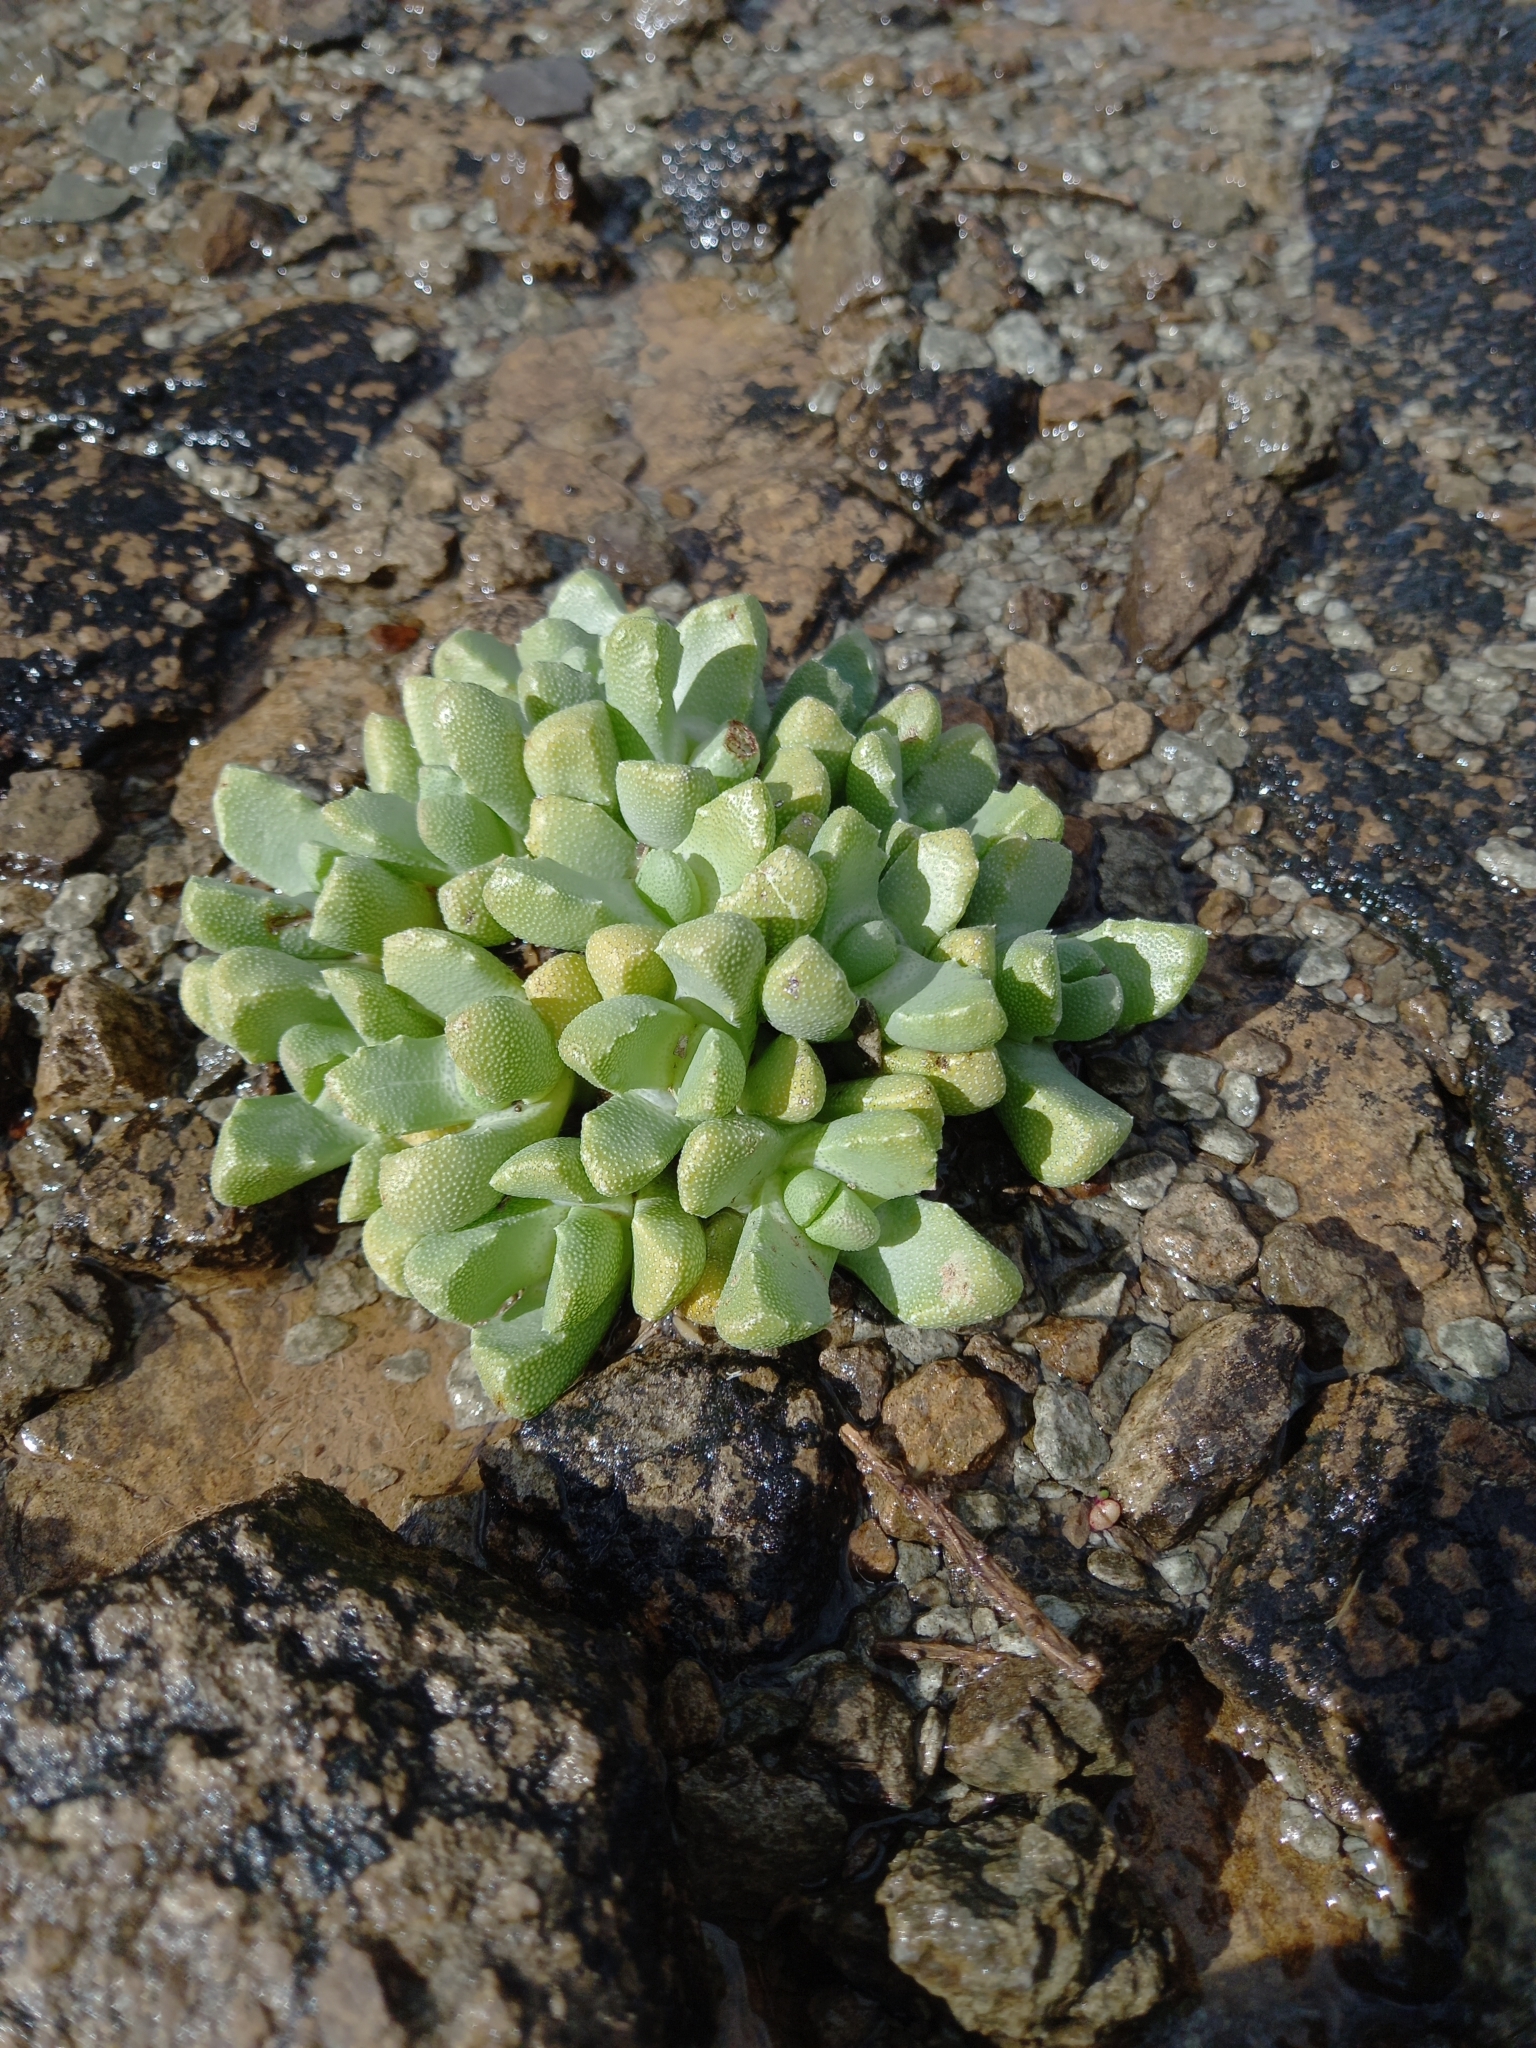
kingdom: Plantae
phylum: Tracheophyta
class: Magnoliopsida
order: Caryophyllales
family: Aizoaceae
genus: Stomatium
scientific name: Stomatium ryderae
